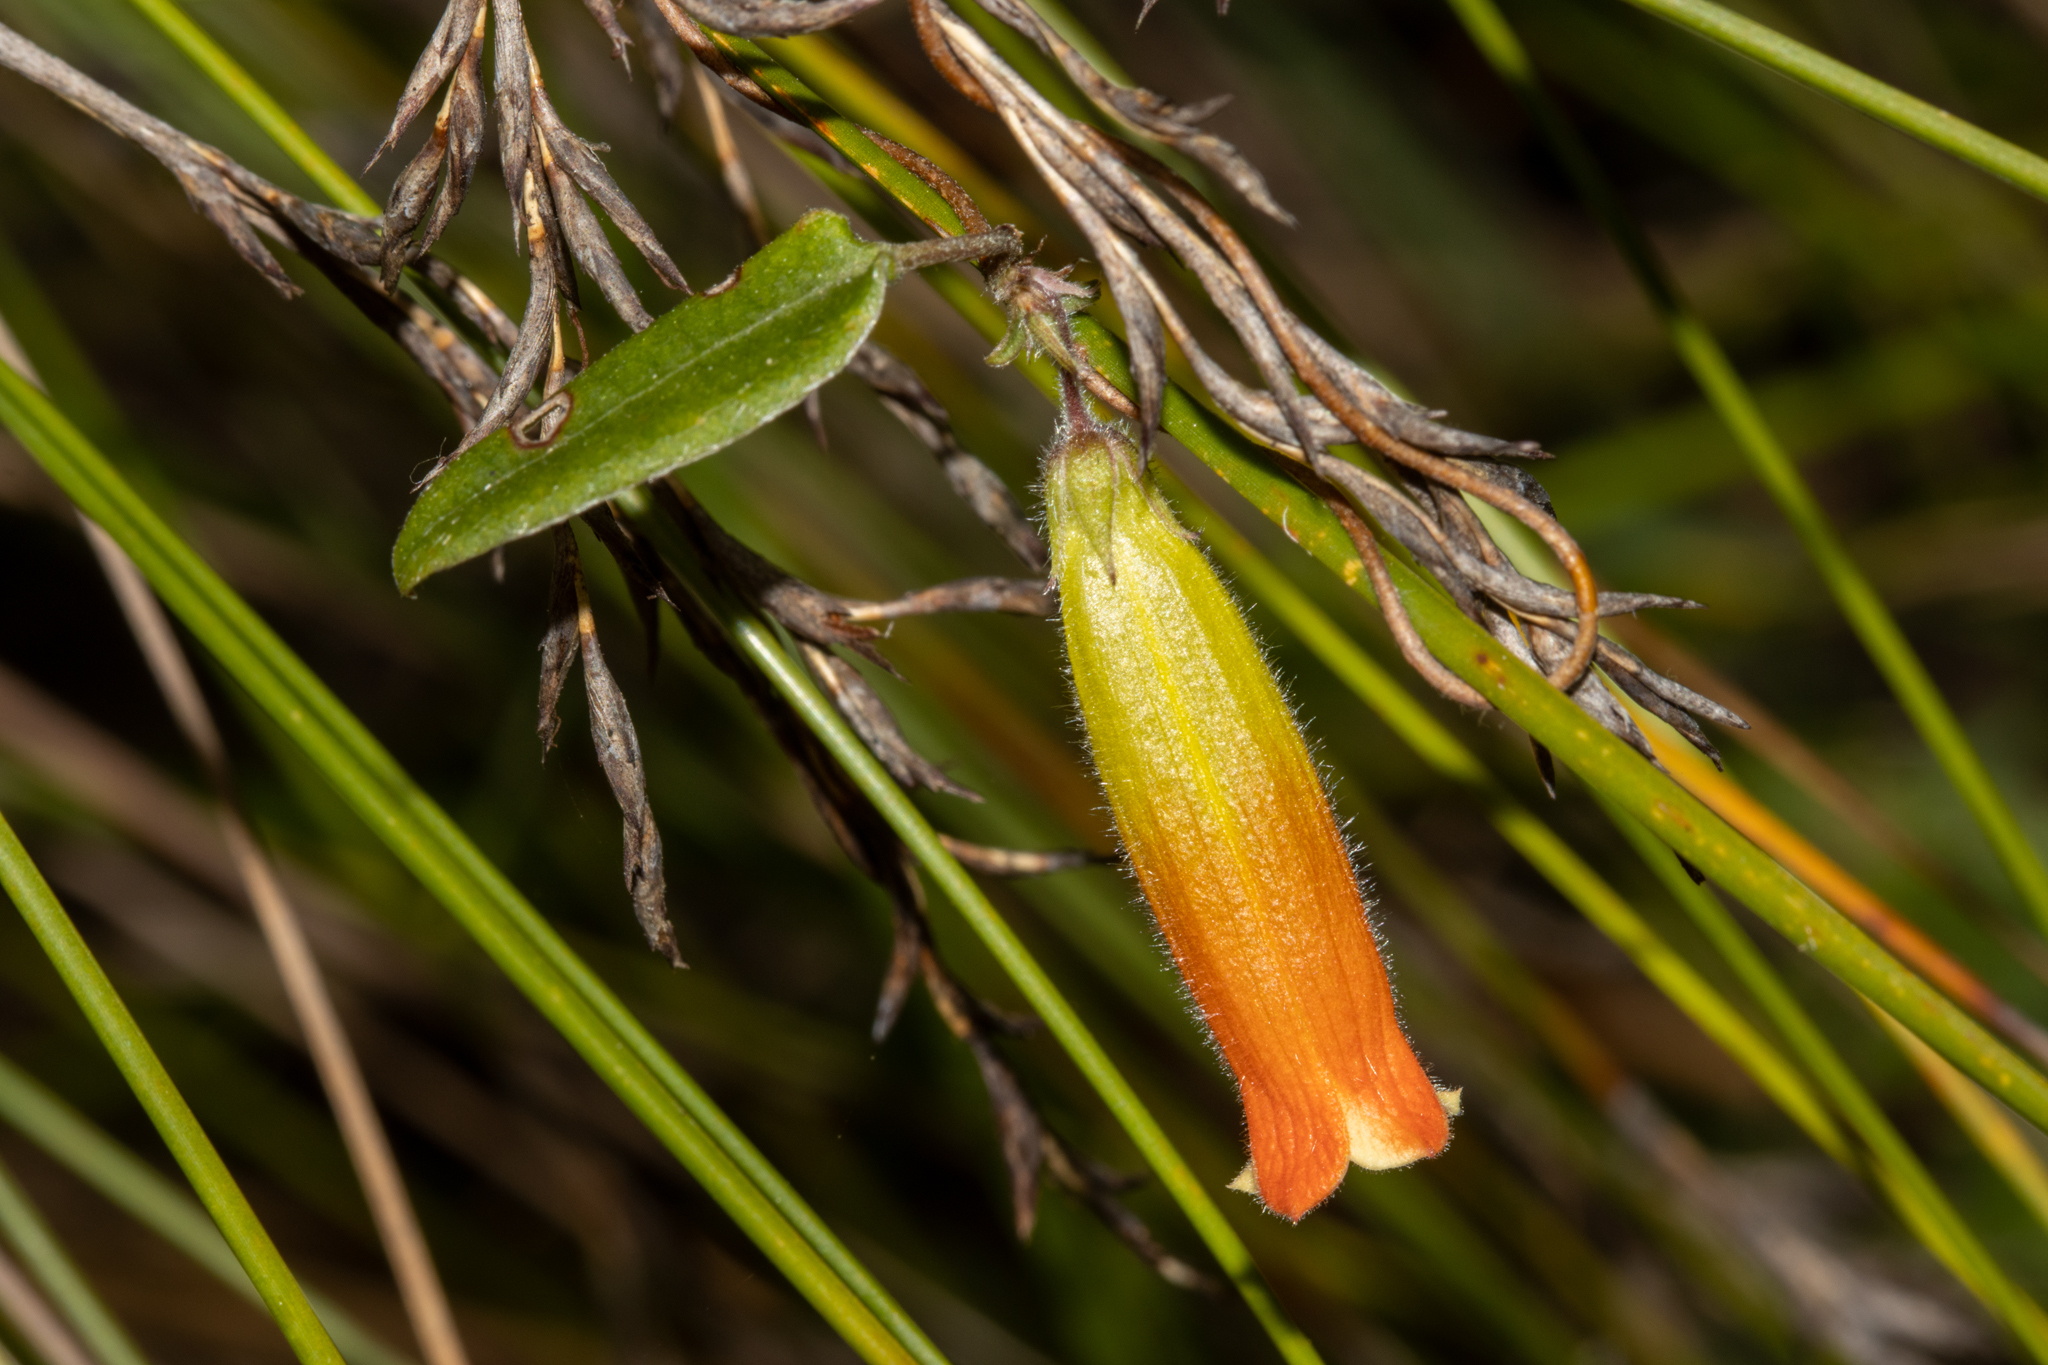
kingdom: Plantae
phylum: Tracheophyta
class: Magnoliopsida
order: Apiales
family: Pittosporaceae
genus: Marianthus
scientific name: Marianthus bignoniaceus
